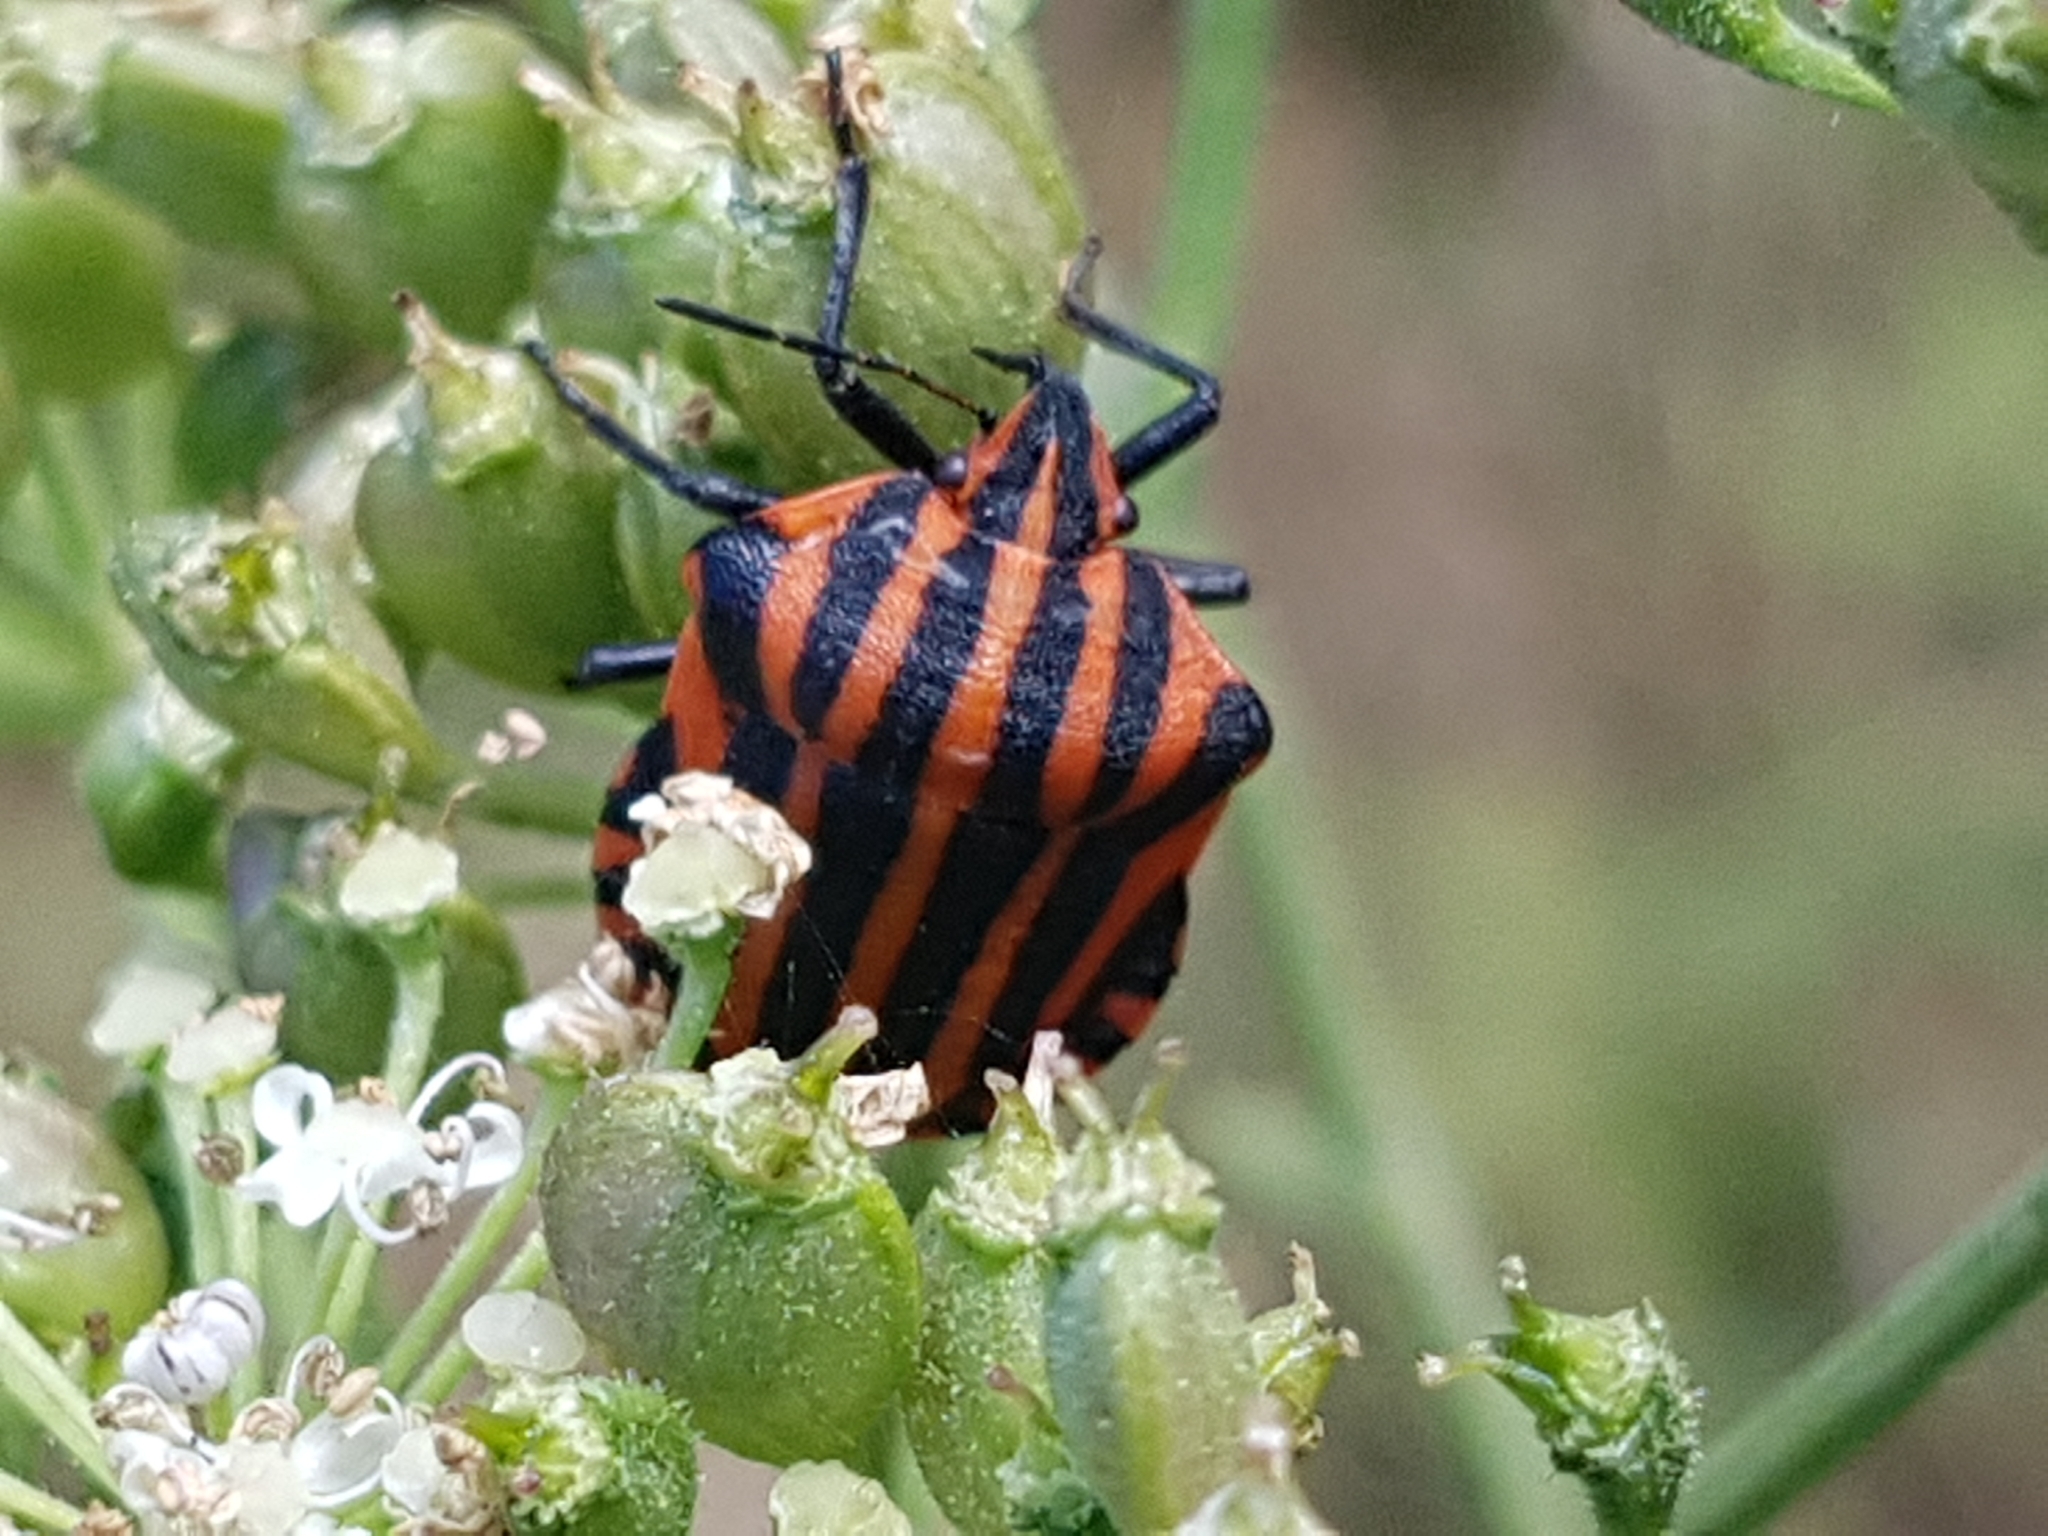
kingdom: Animalia
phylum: Arthropoda
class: Insecta
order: Hemiptera
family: Pentatomidae
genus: Graphosoma
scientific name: Graphosoma italicum
